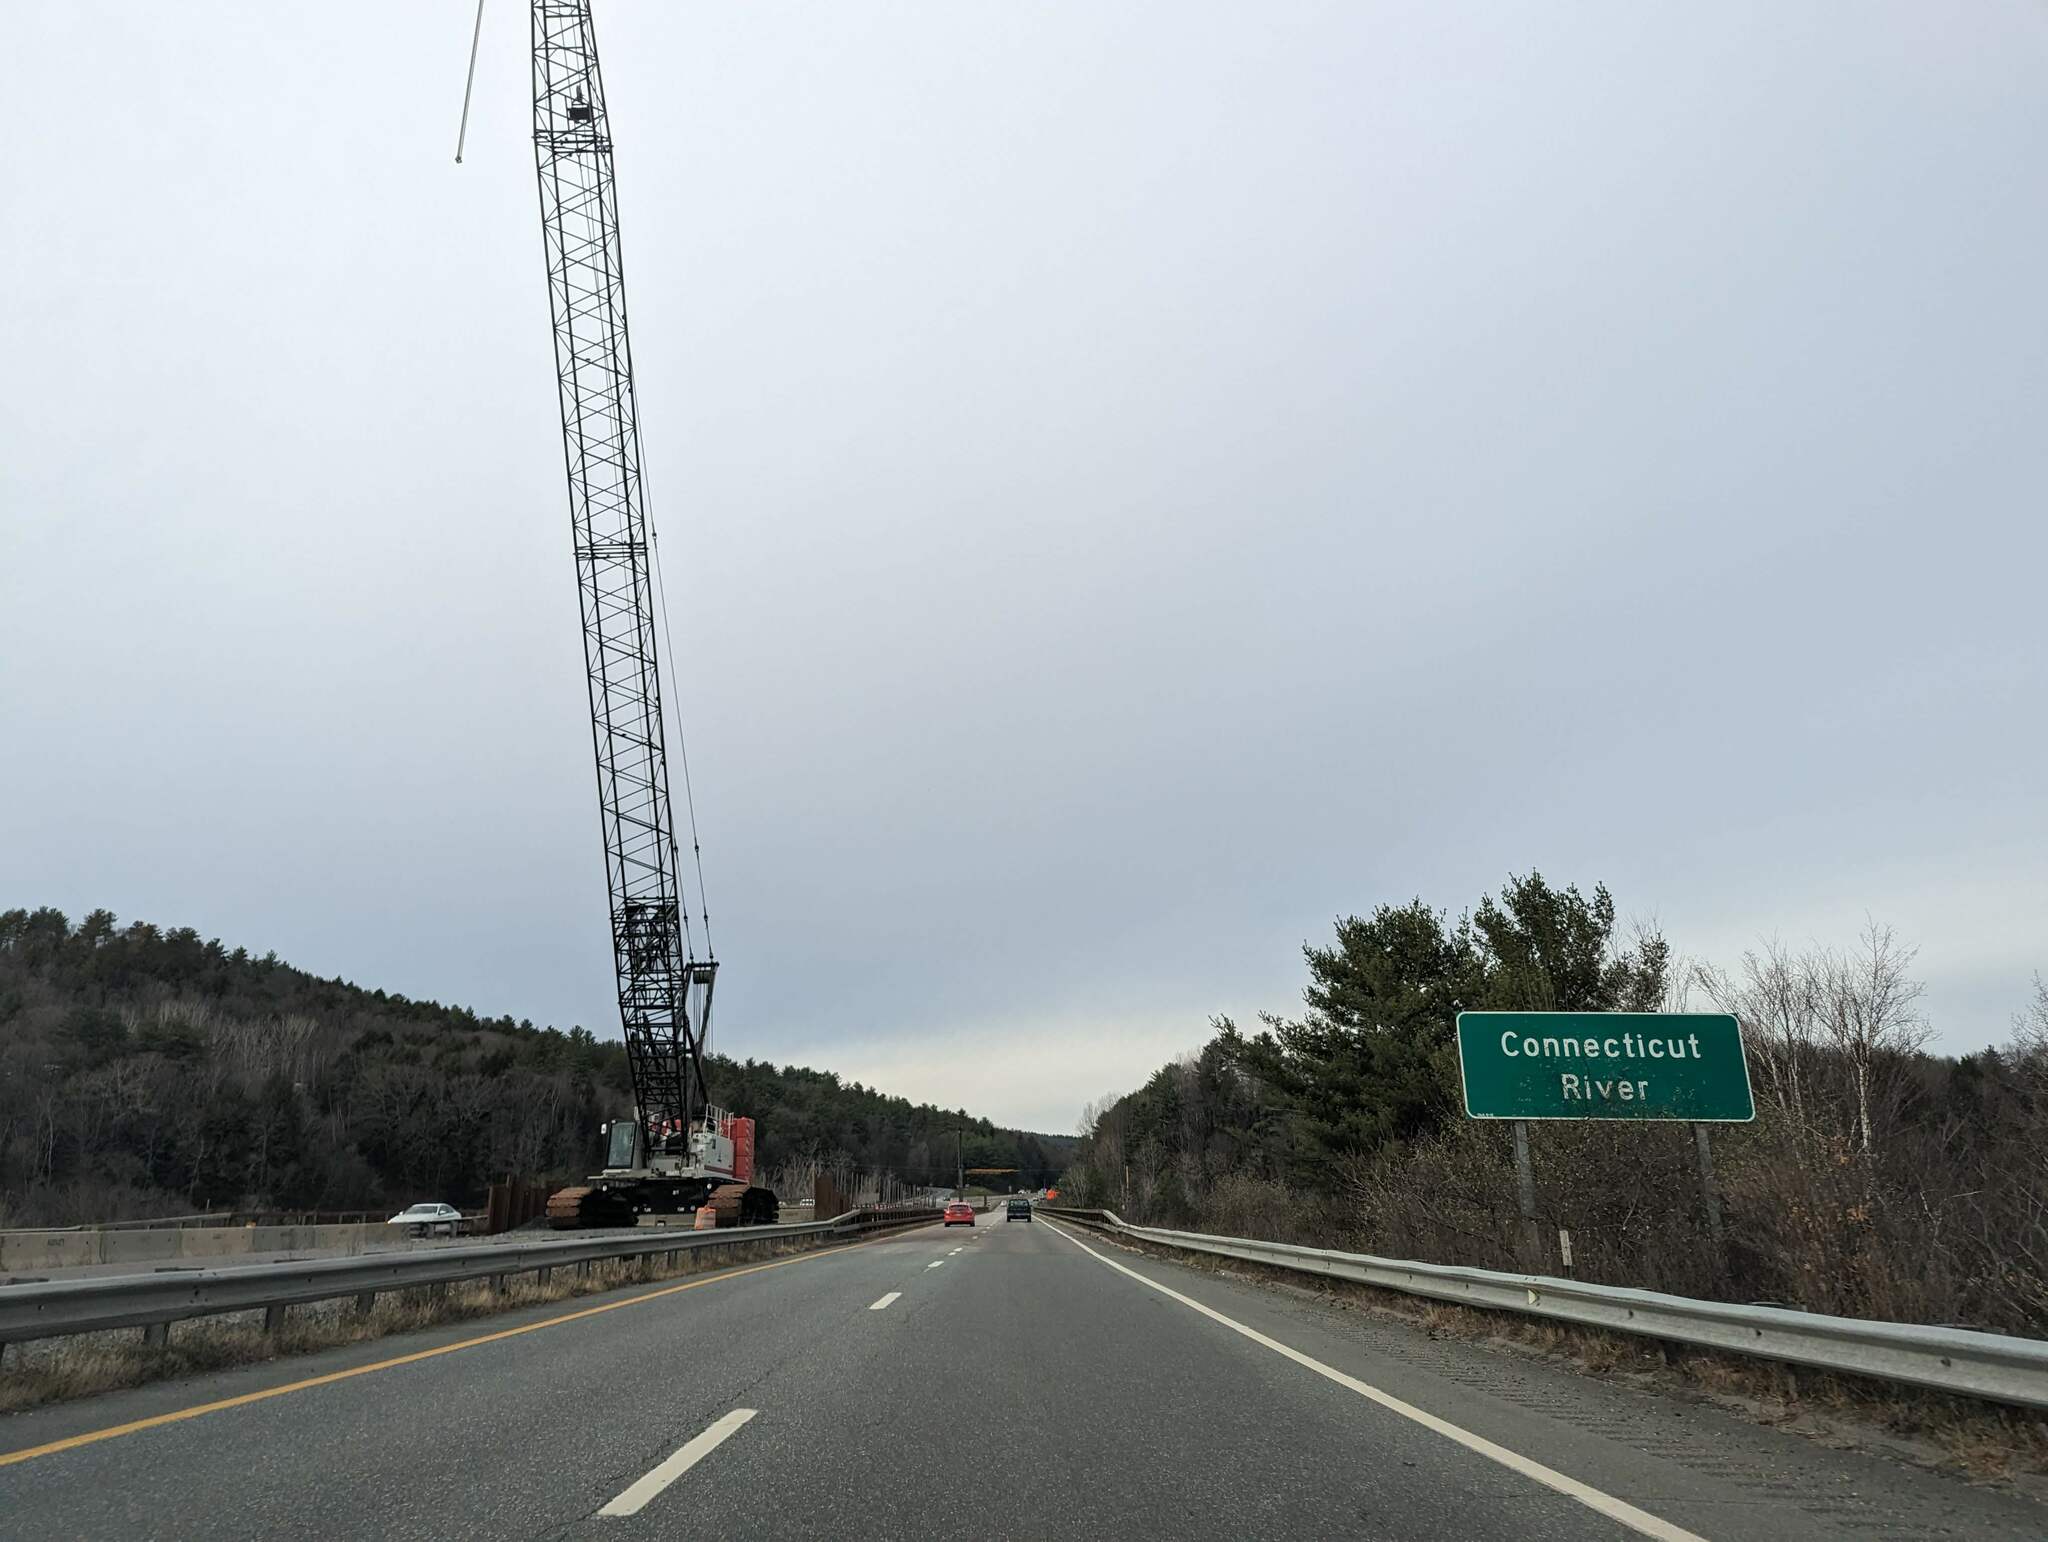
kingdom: Plantae
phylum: Tracheophyta
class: Pinopsida
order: Pinales
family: Pinaceae
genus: Pinus
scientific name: Pinus strobus
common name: Weymouth pine
